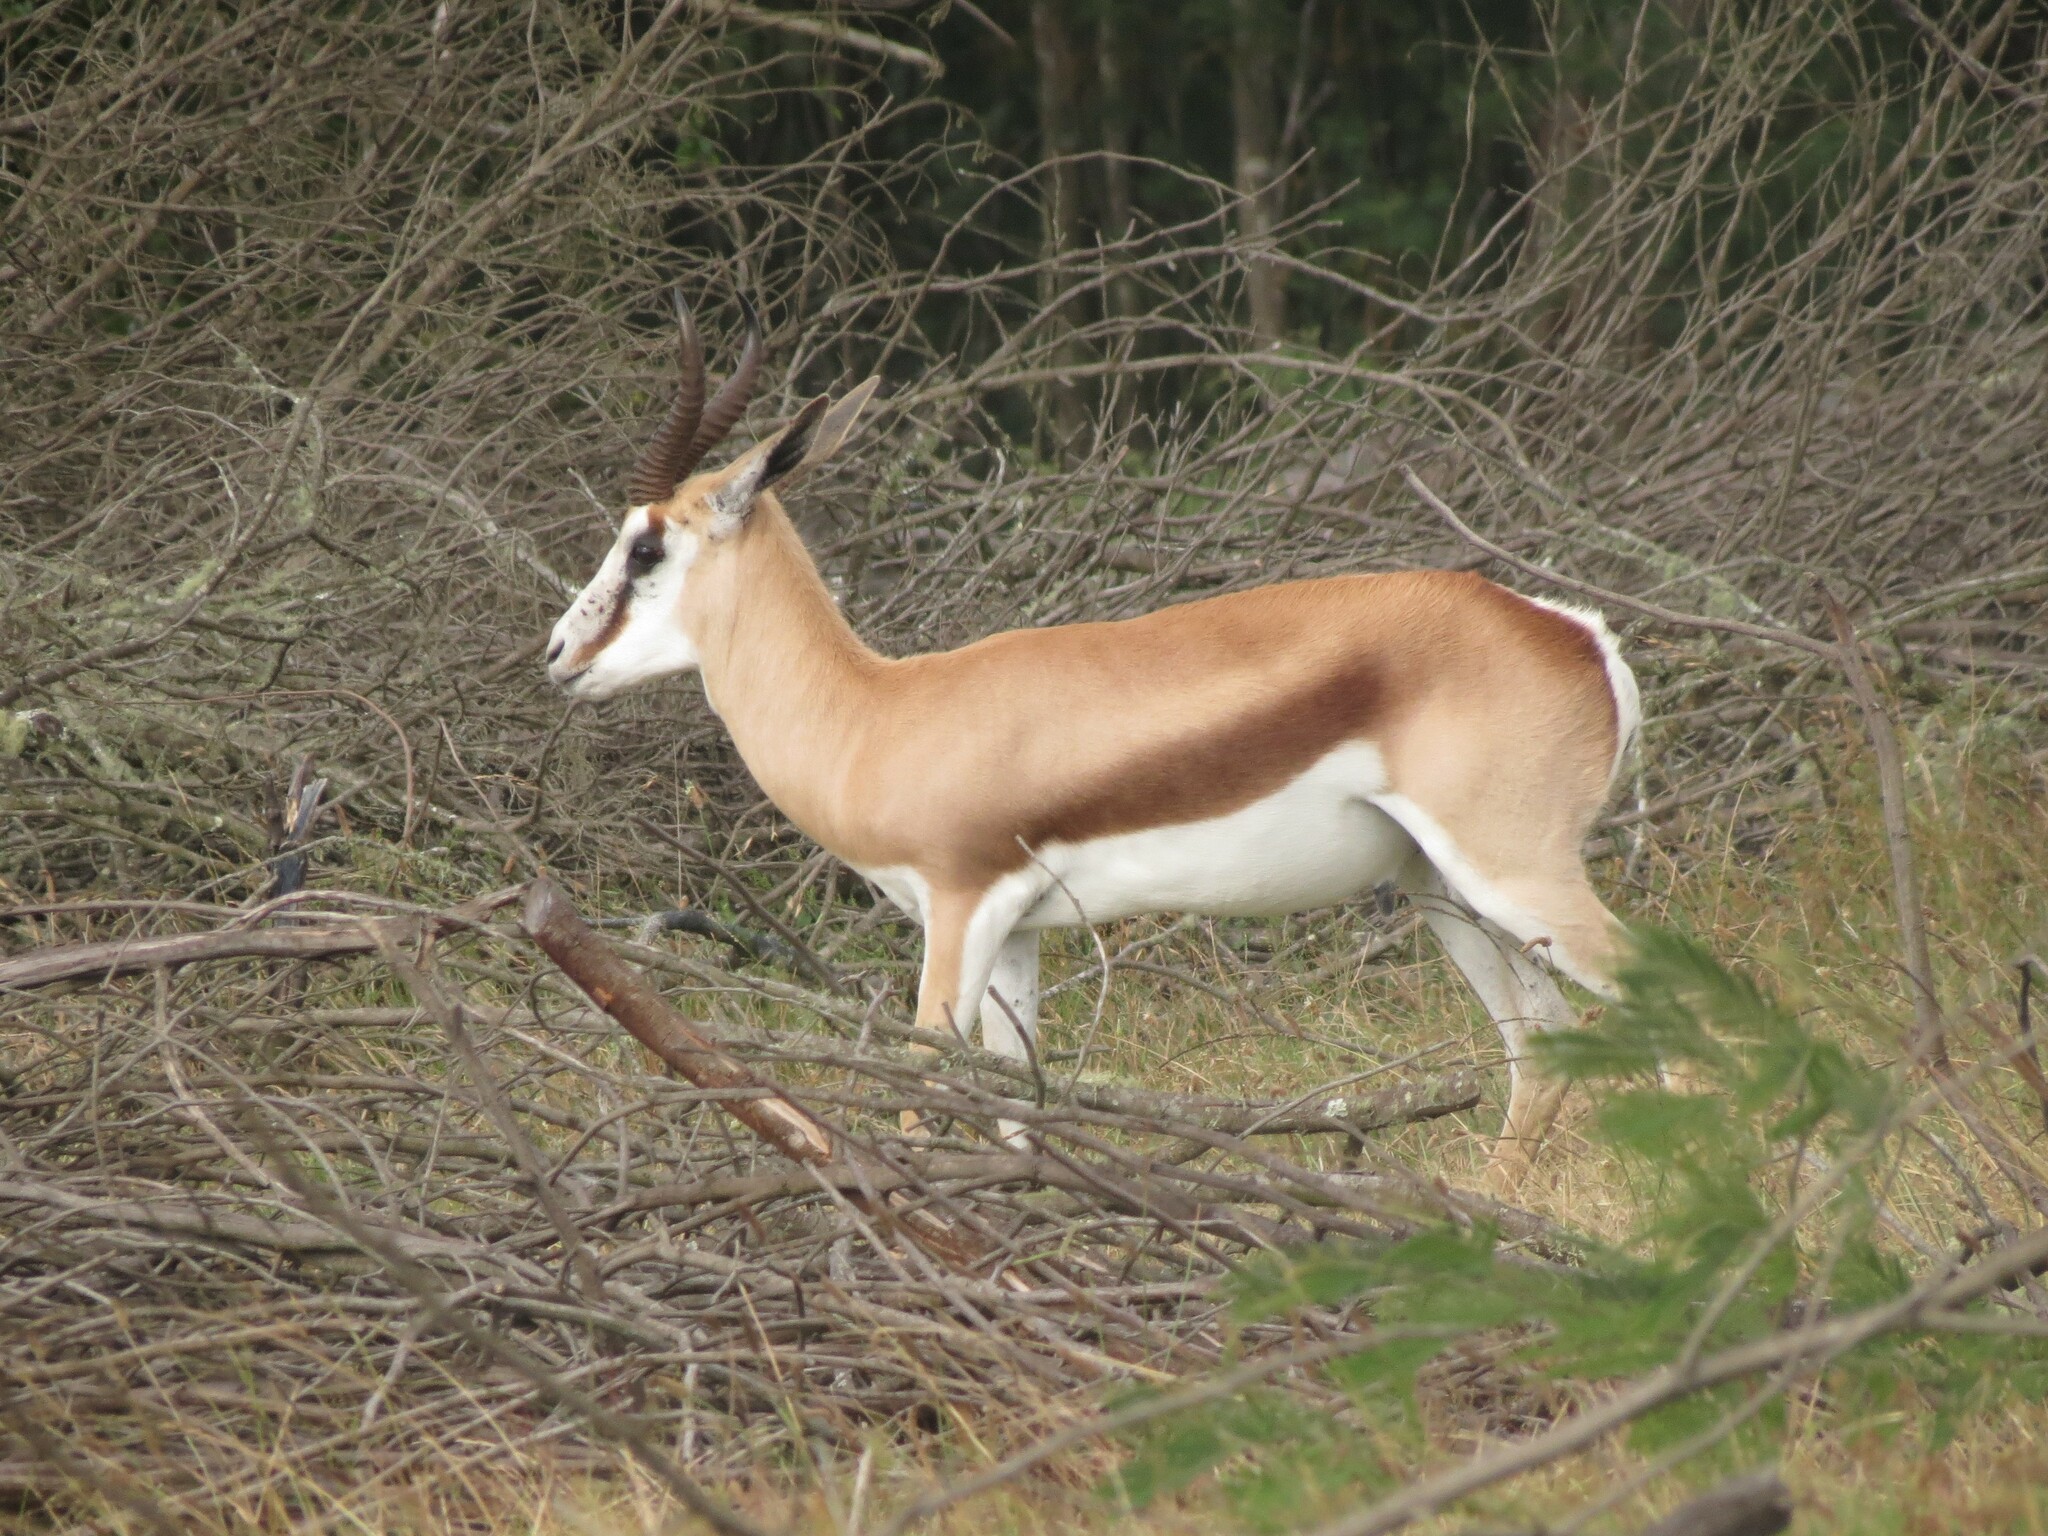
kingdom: Animalia
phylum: Chordata
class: Mammalia
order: Artiodactyla
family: Bovidae
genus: Antidorcas
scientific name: Antidorcas marsupialis
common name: Springbok
